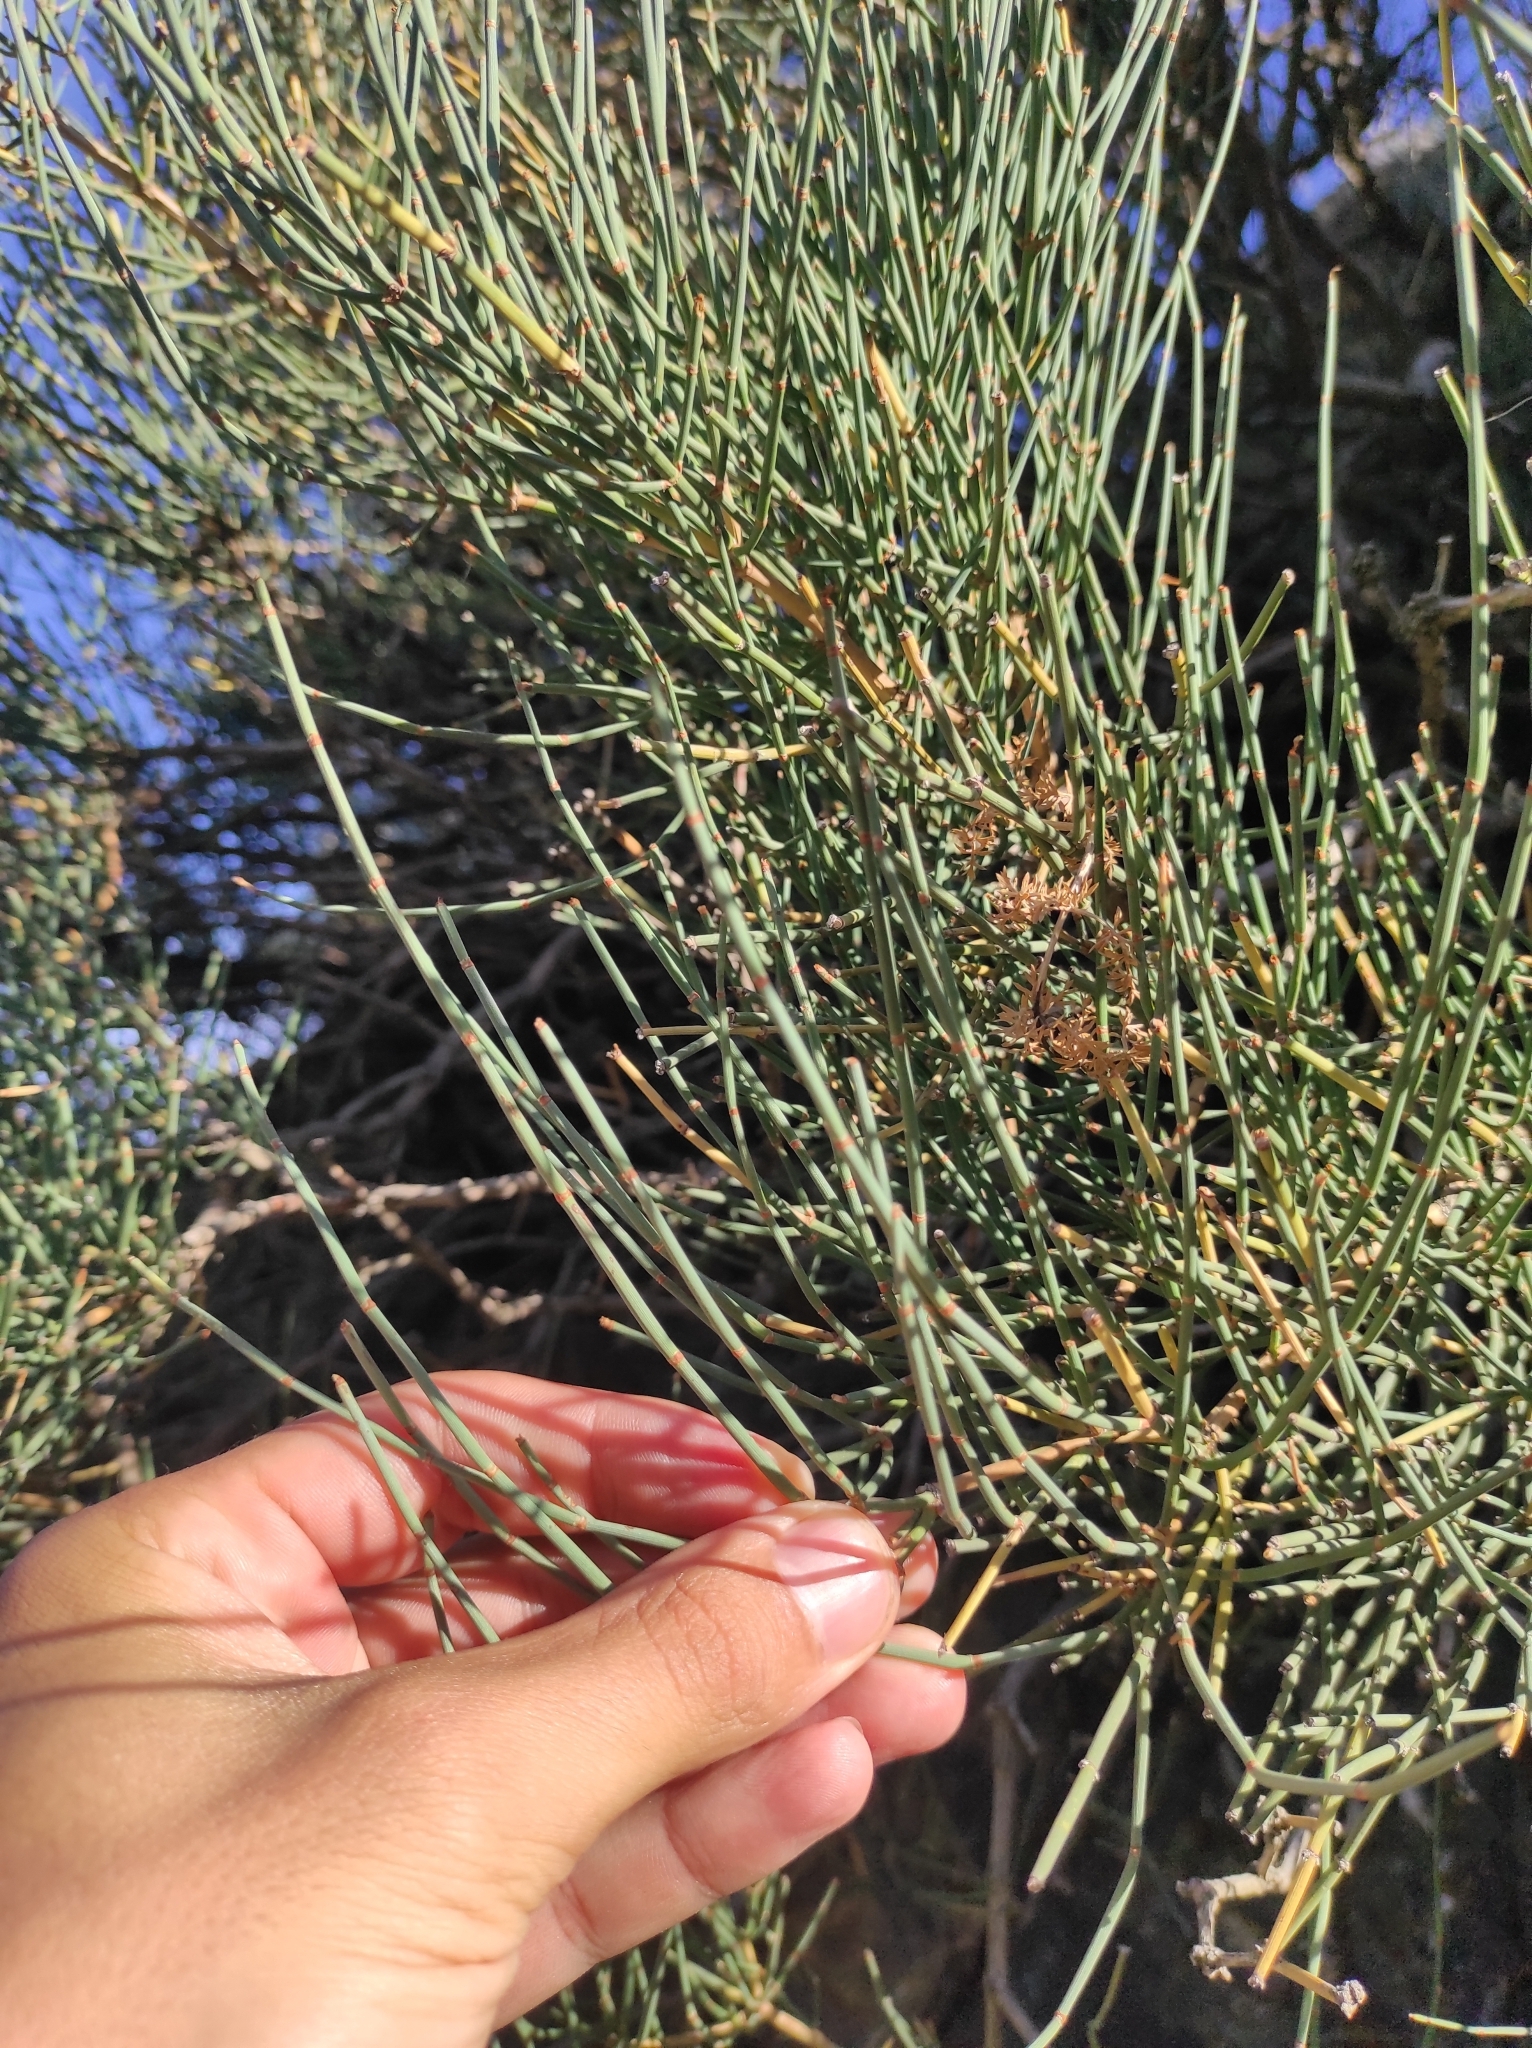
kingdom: Plantae
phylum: Tracheophyta
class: Gnetopsida
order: Ephedrales
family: Ephedraceae
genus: Ephedra
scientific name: Ephedra equisetina
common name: Mongolian ephedra
